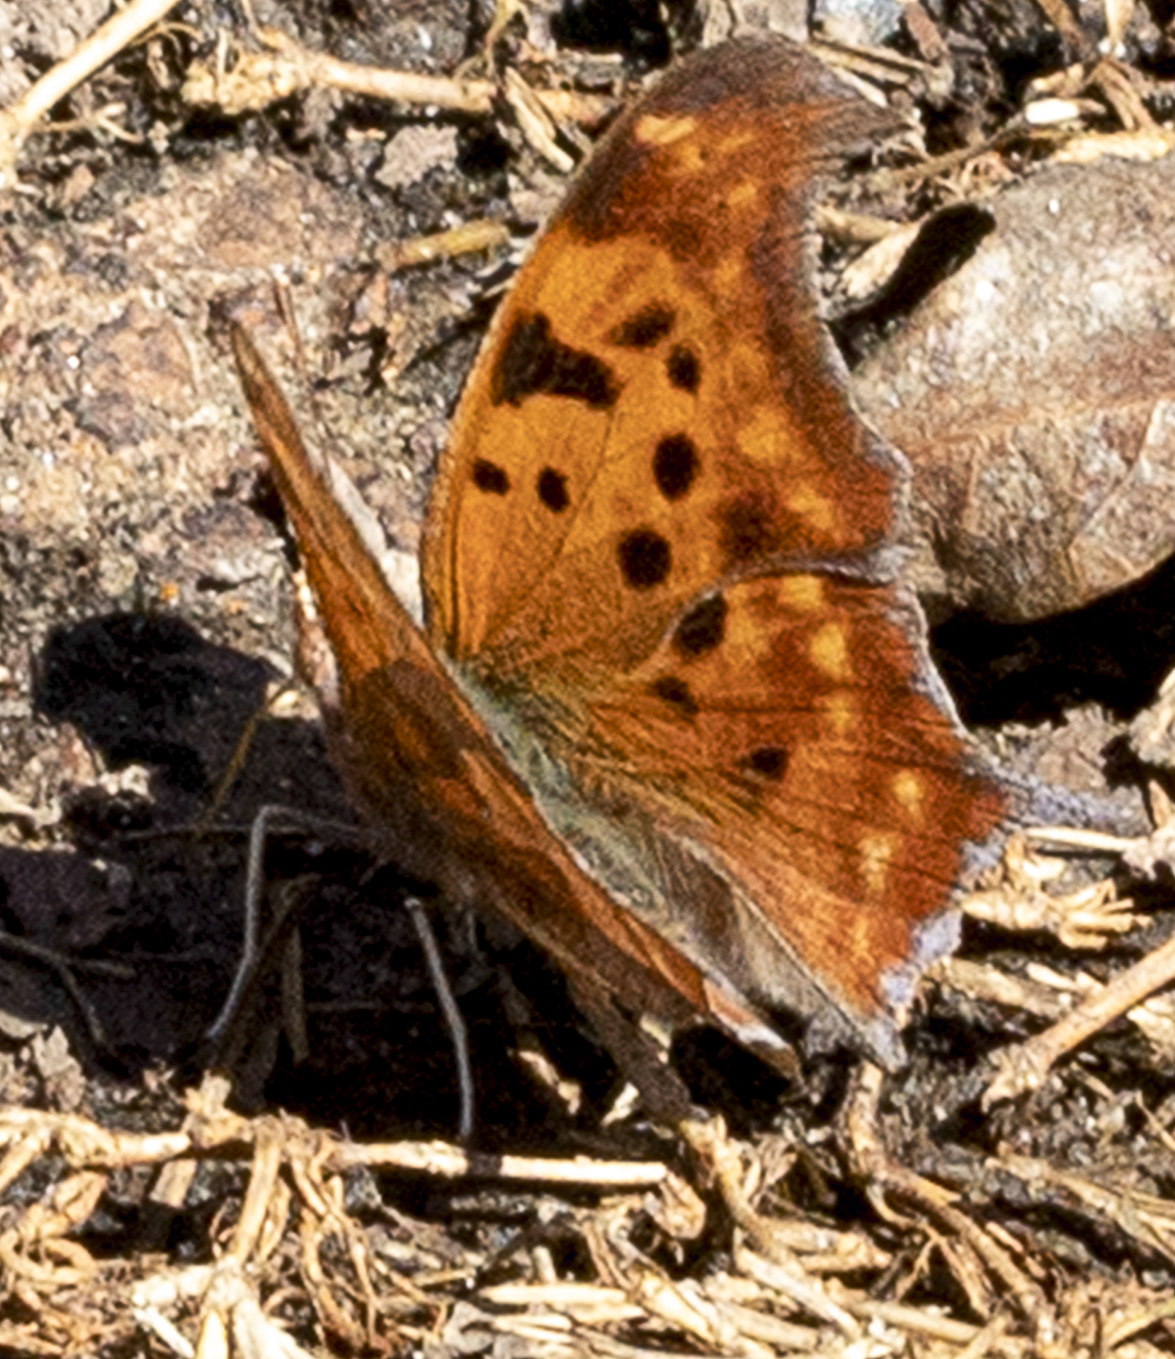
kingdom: Animalia
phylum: Arthropoda
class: Insecta
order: Lepidoptera
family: Nymphalidae
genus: Polygonia
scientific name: Polygonia interrogationis
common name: Question mark
